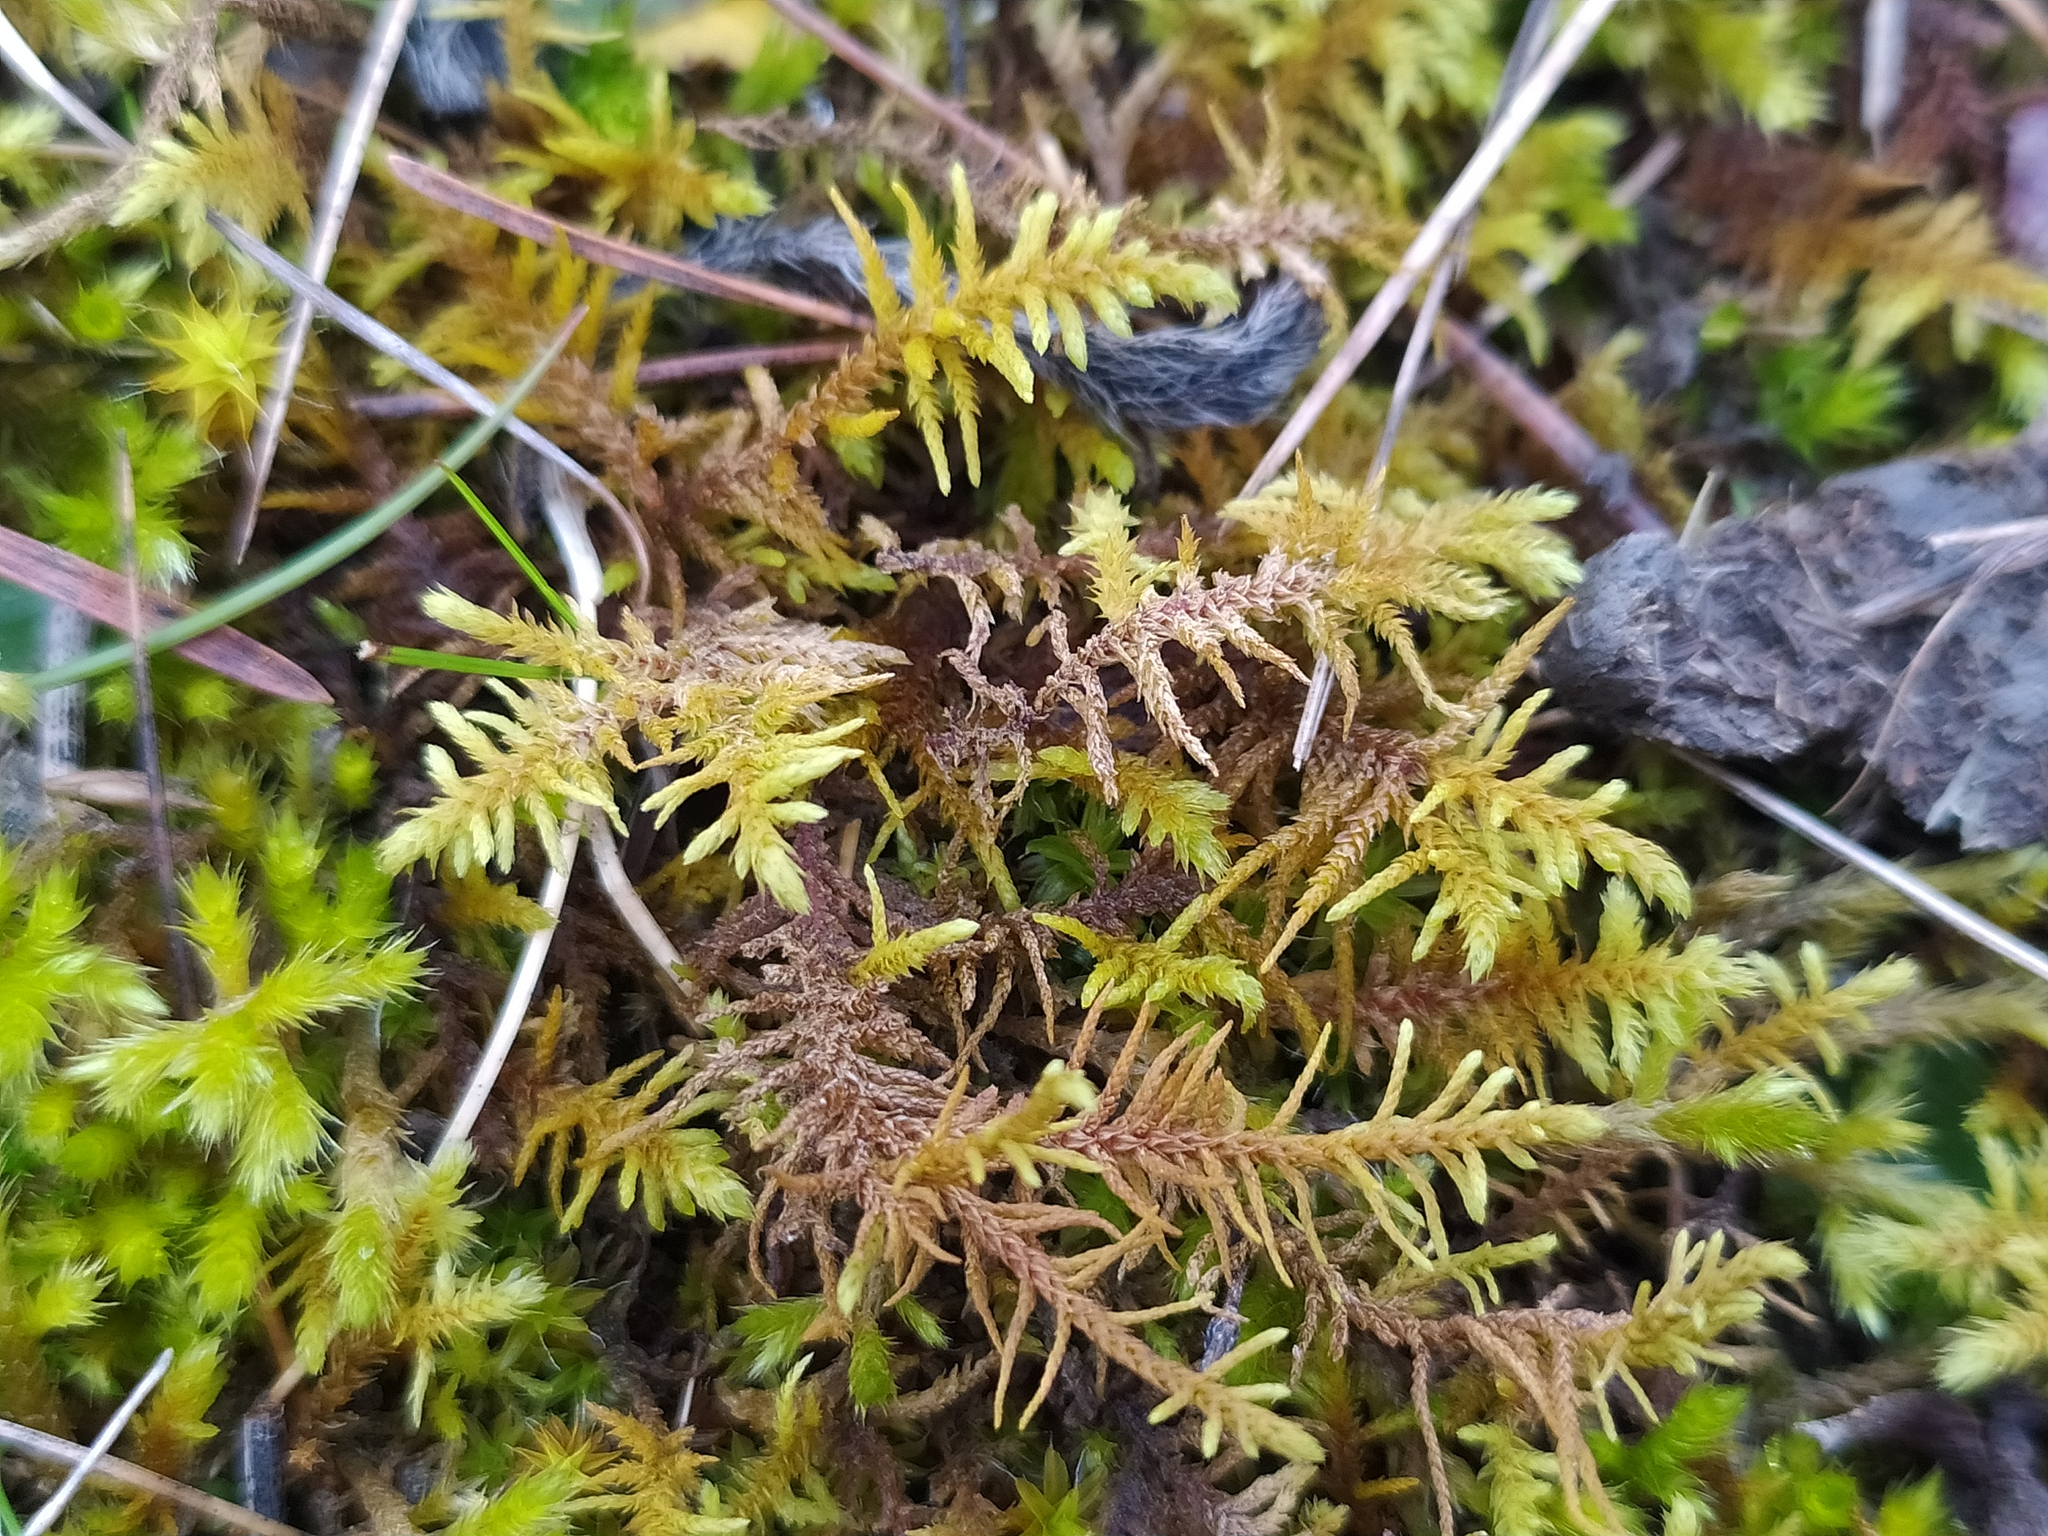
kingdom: Plantae
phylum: Bryophyta
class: Bryopsida
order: Hypnales
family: Thuidiaceae
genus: Abietinella
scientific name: Abietinella abietina
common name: Wiry fern moss
